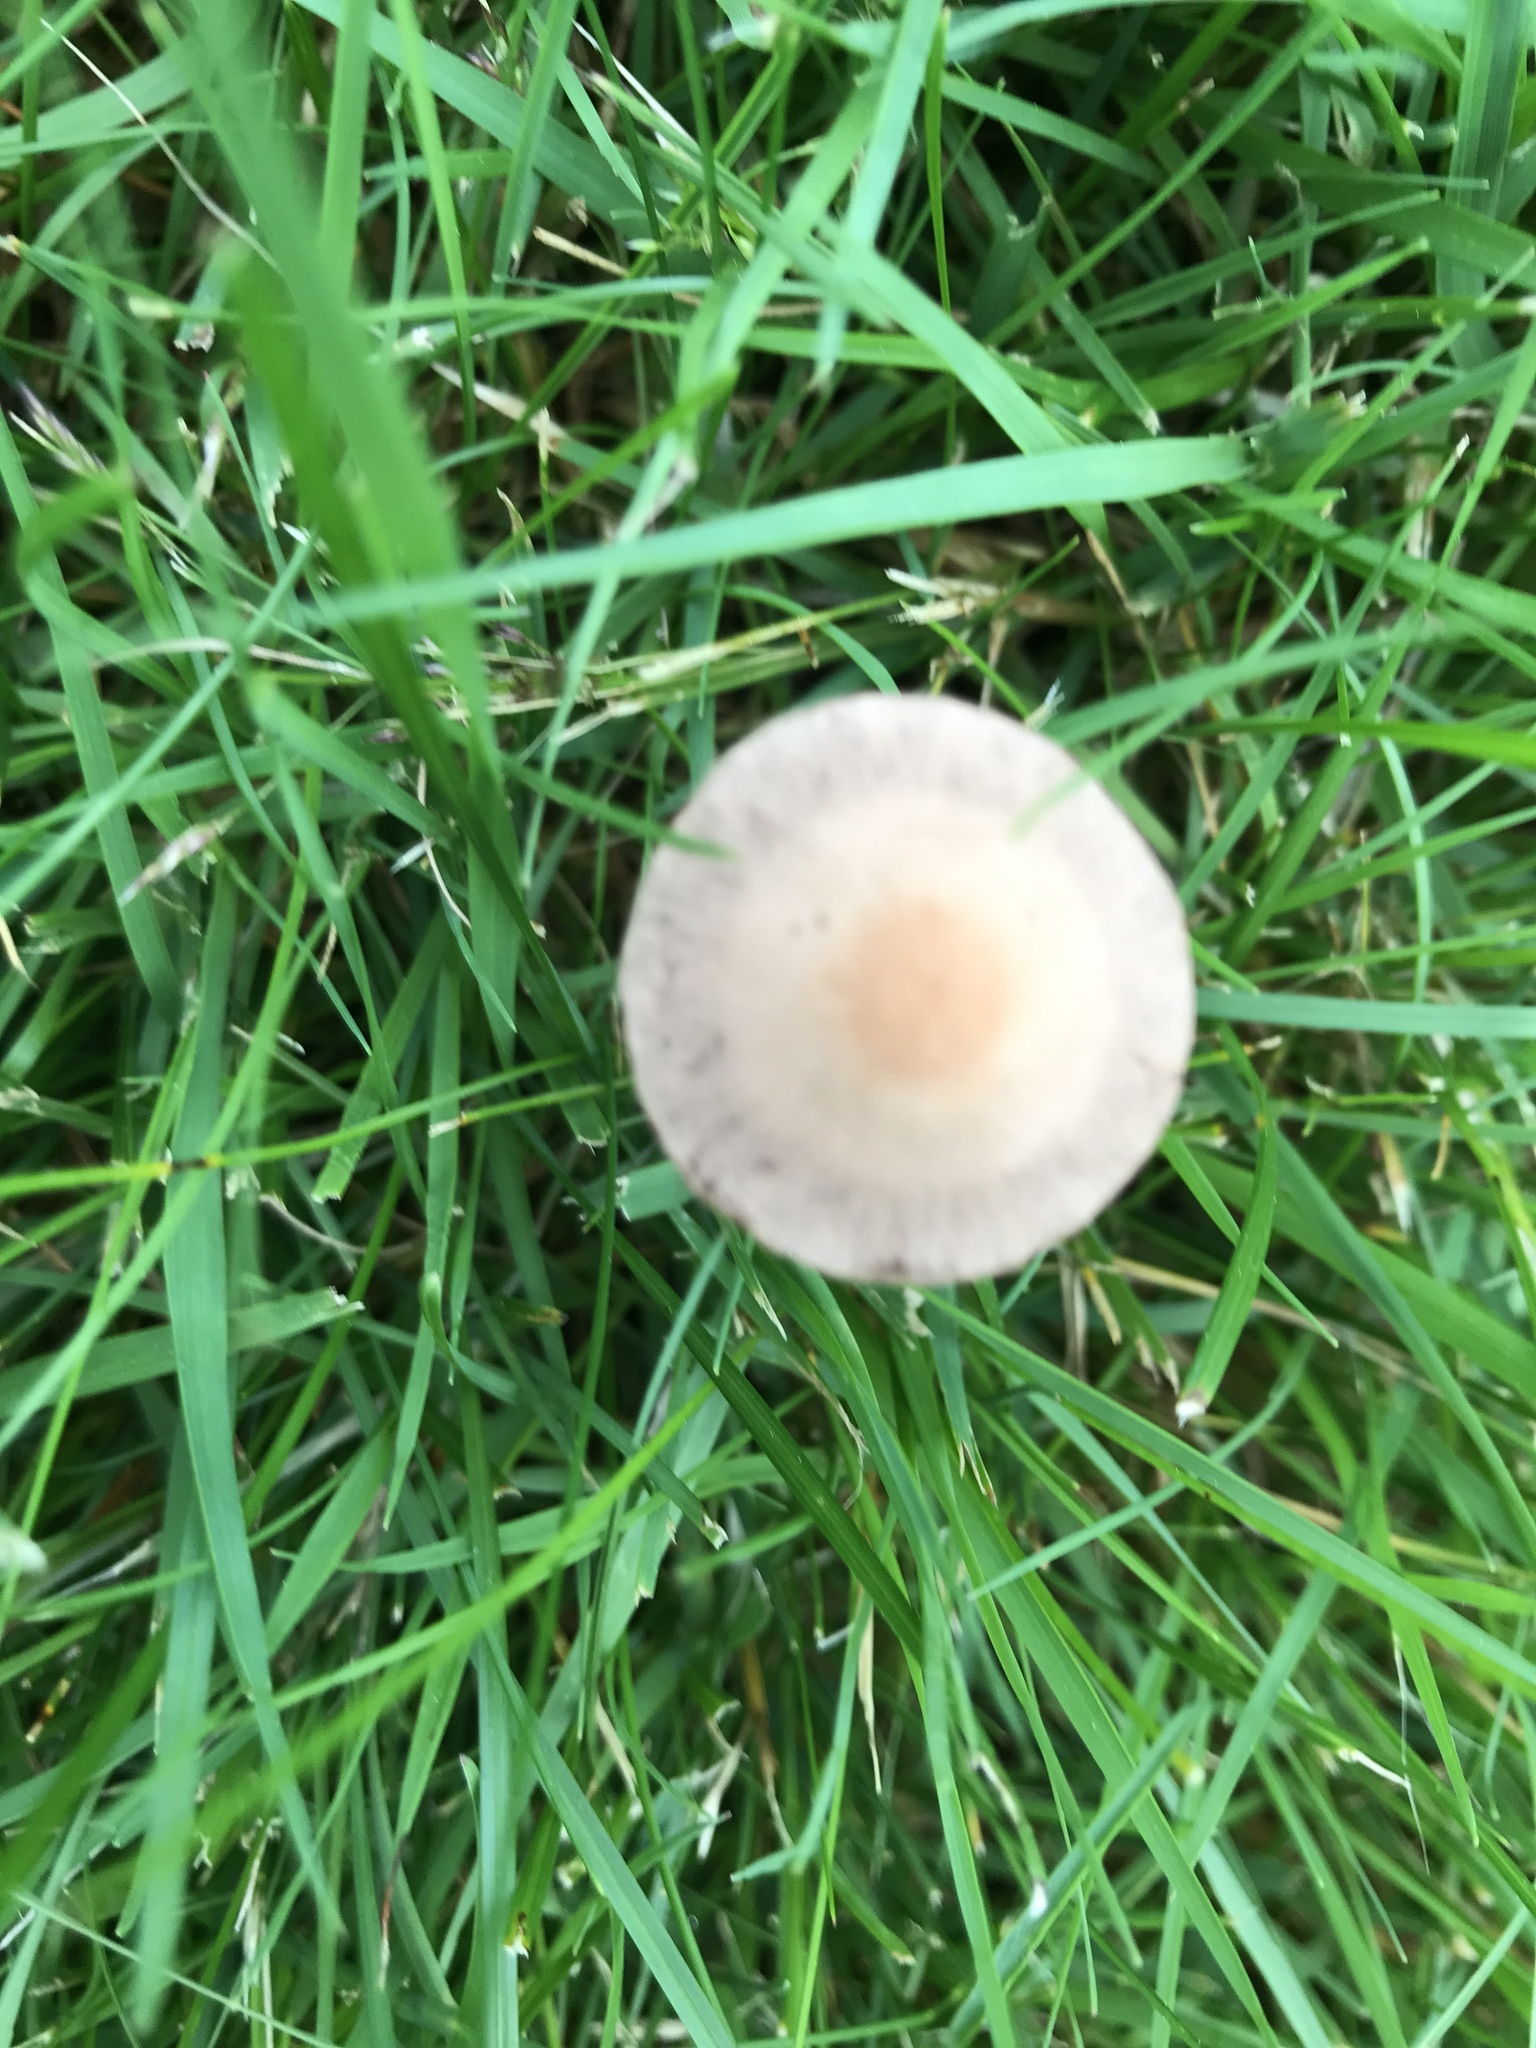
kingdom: Fungi
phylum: Basidiomycota
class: Agaricomycetes
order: Agaricales
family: Bolbitiaceae
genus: Panaeolina
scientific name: Panaeolina foenisecii
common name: Brown hay cap
